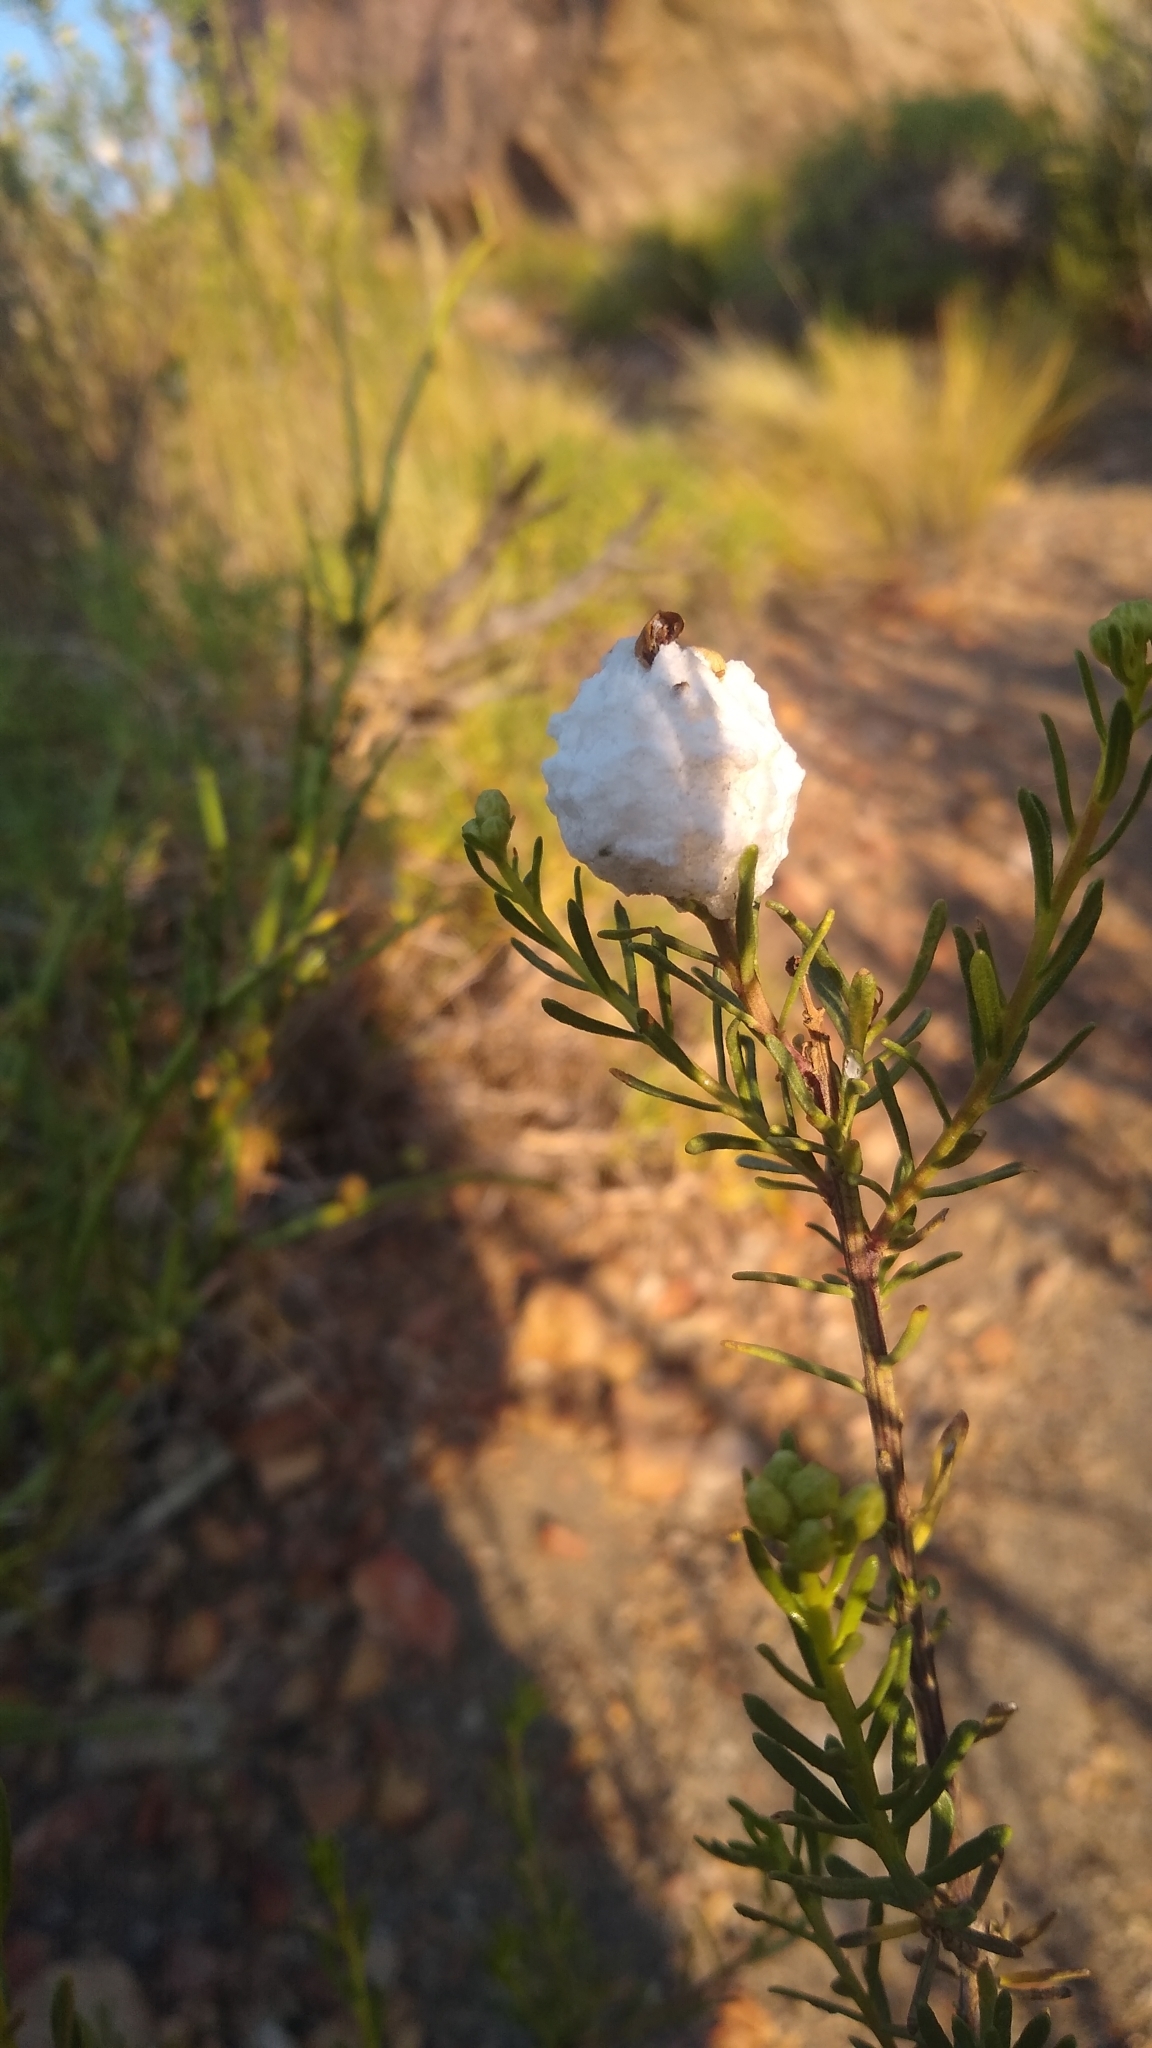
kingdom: Animalia
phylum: Arthropoda
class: Insecta
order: Diptera
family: Tephritidae
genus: Rachiptera
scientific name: Rachiptera limbata
